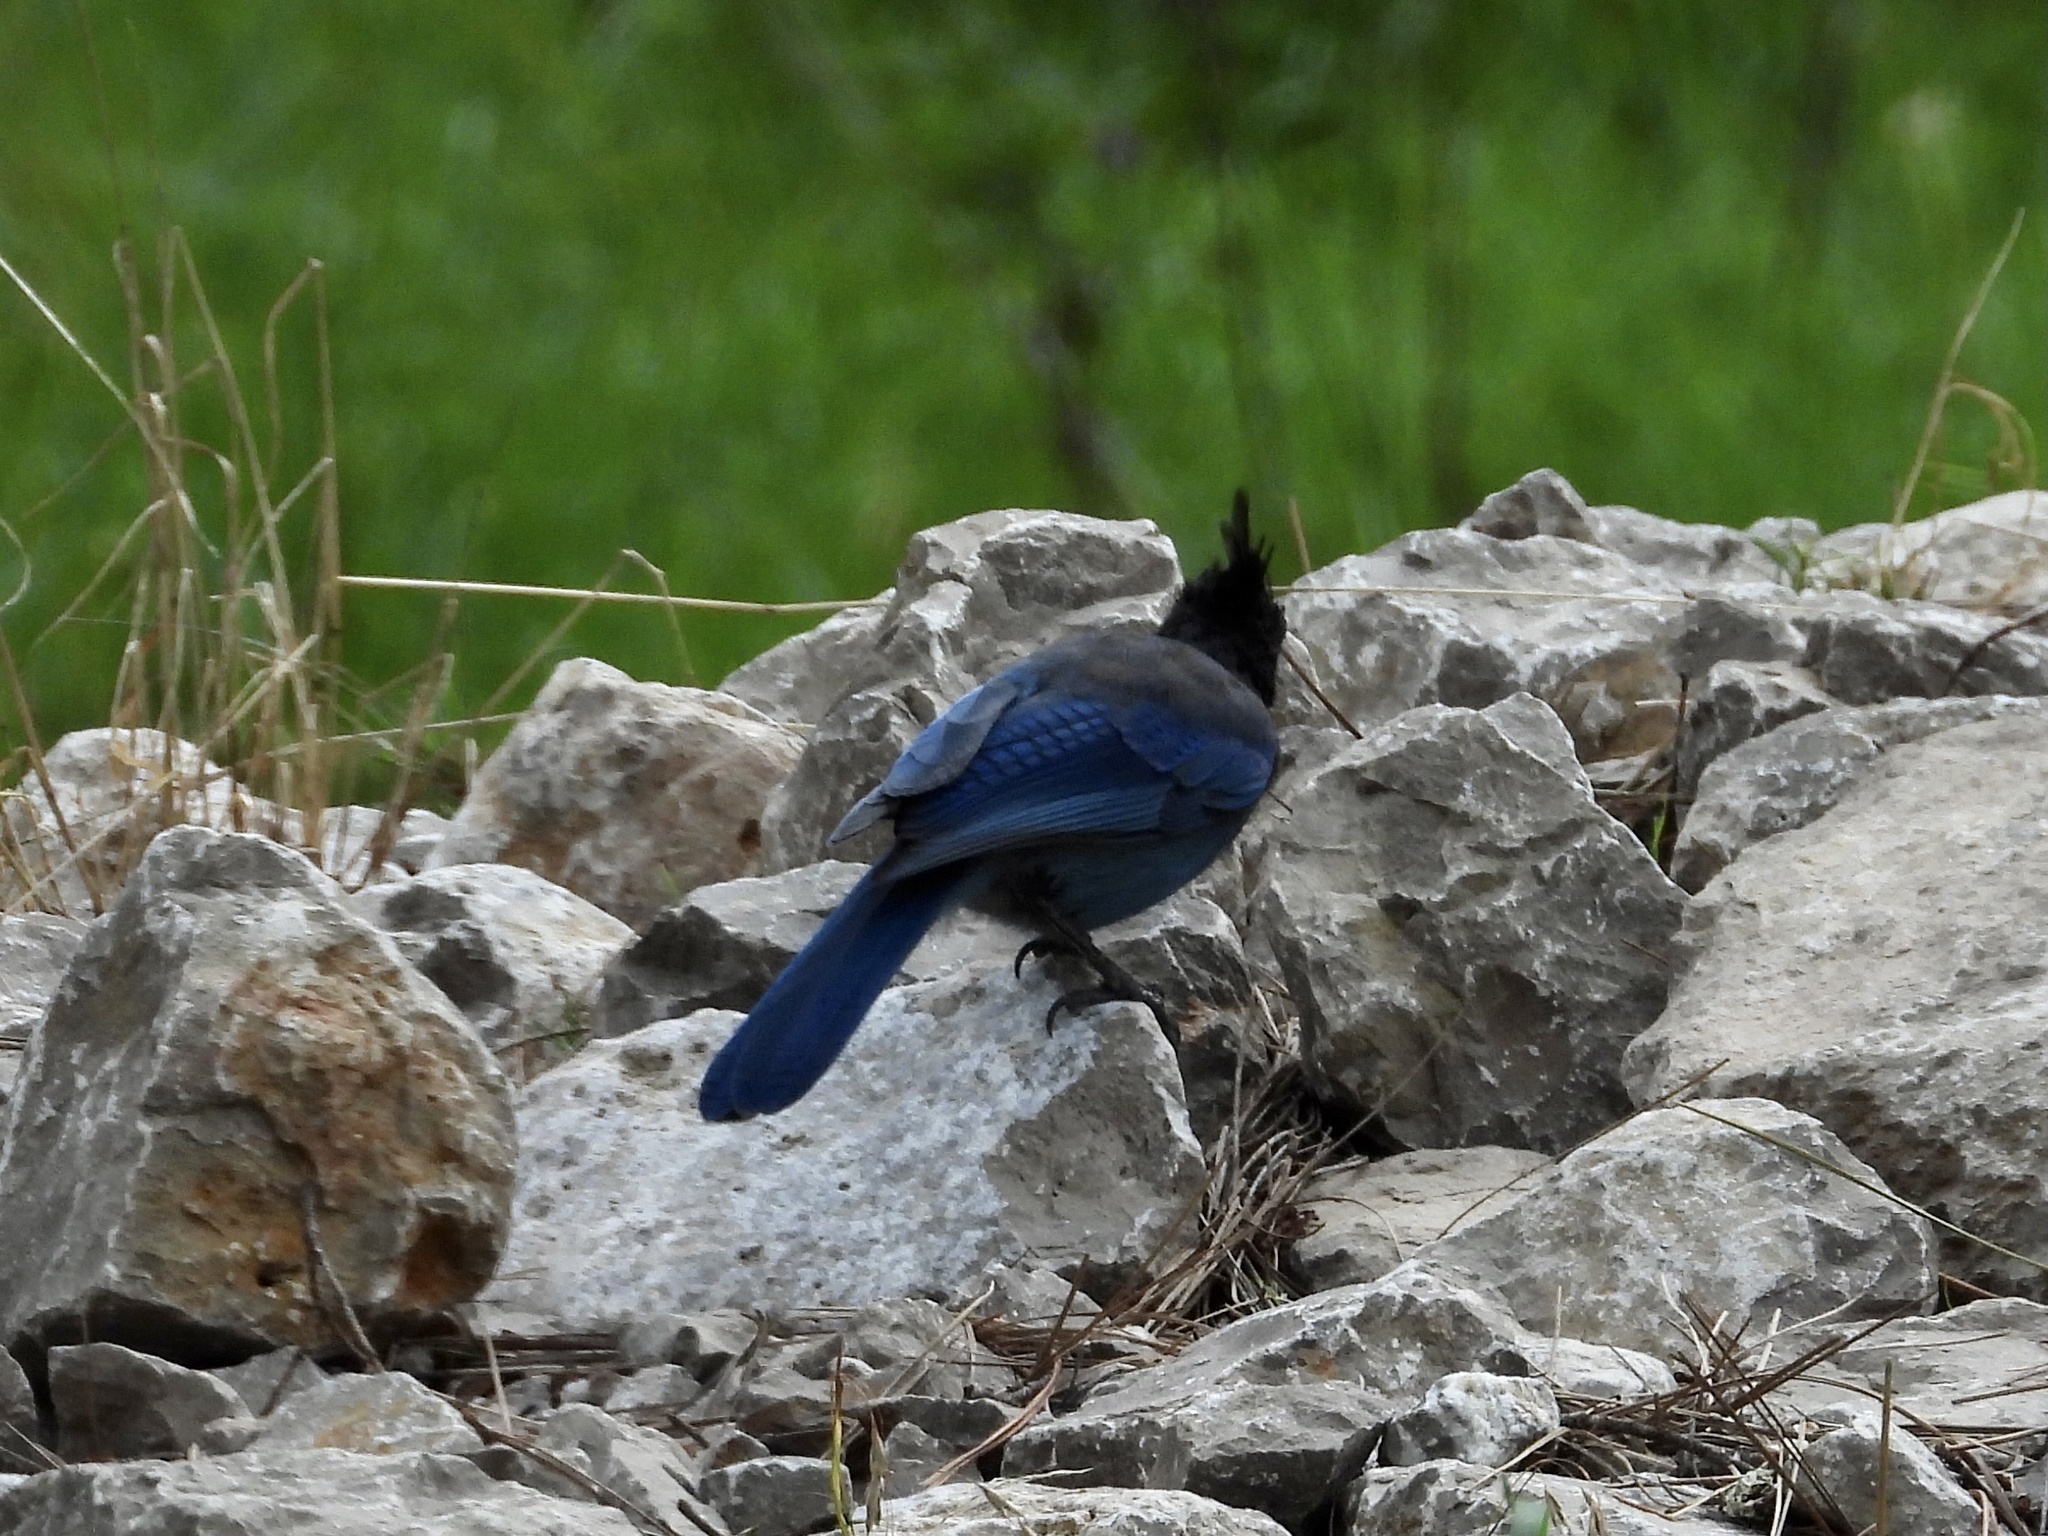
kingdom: Animalia
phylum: Chordata
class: Aves
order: Passeriformes
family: Corvidae
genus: Cyanocitta
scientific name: Cyanocitta stelleri
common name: Steller's jay
